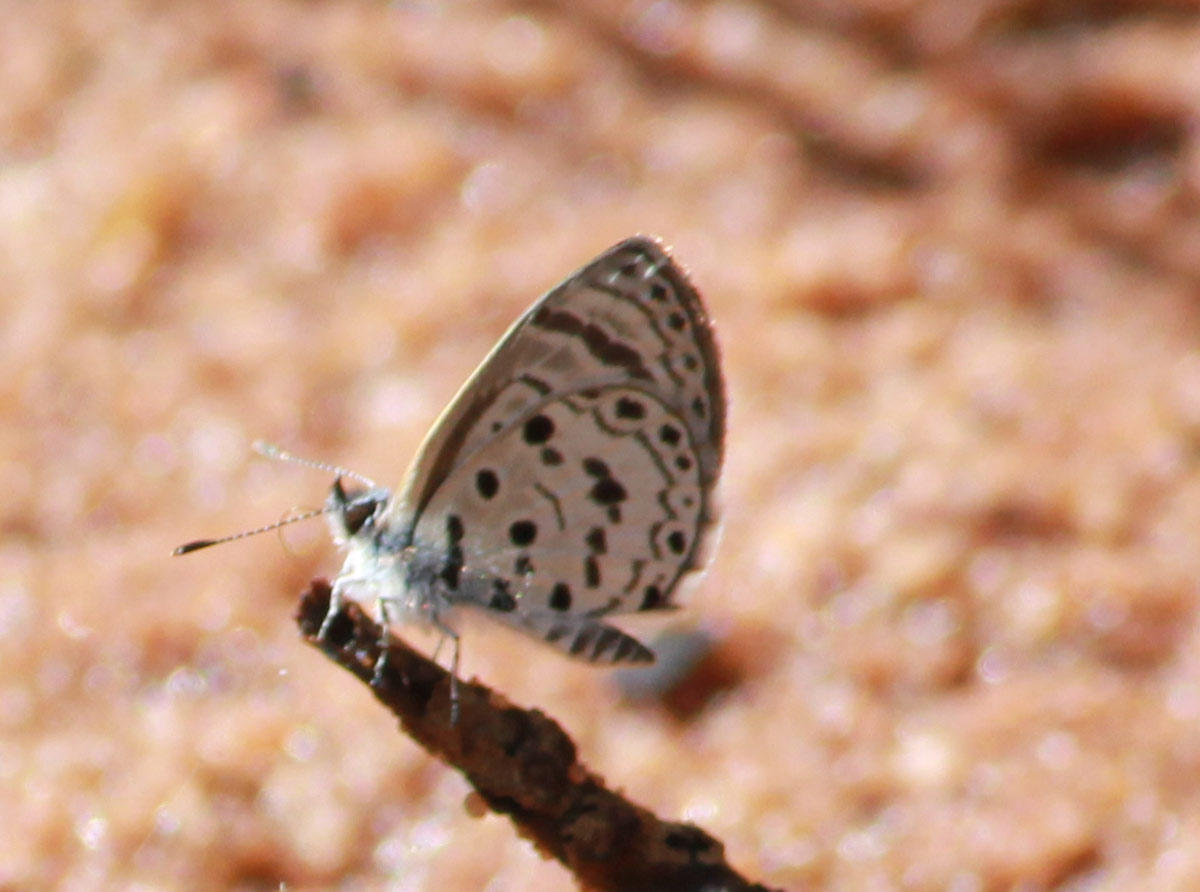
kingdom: Animalia
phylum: Arthropoda
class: Insecta
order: Lepidoptera
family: Lycaenidae
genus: Azanus
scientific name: Azanus moriqua
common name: Thorn-tree babul blue
